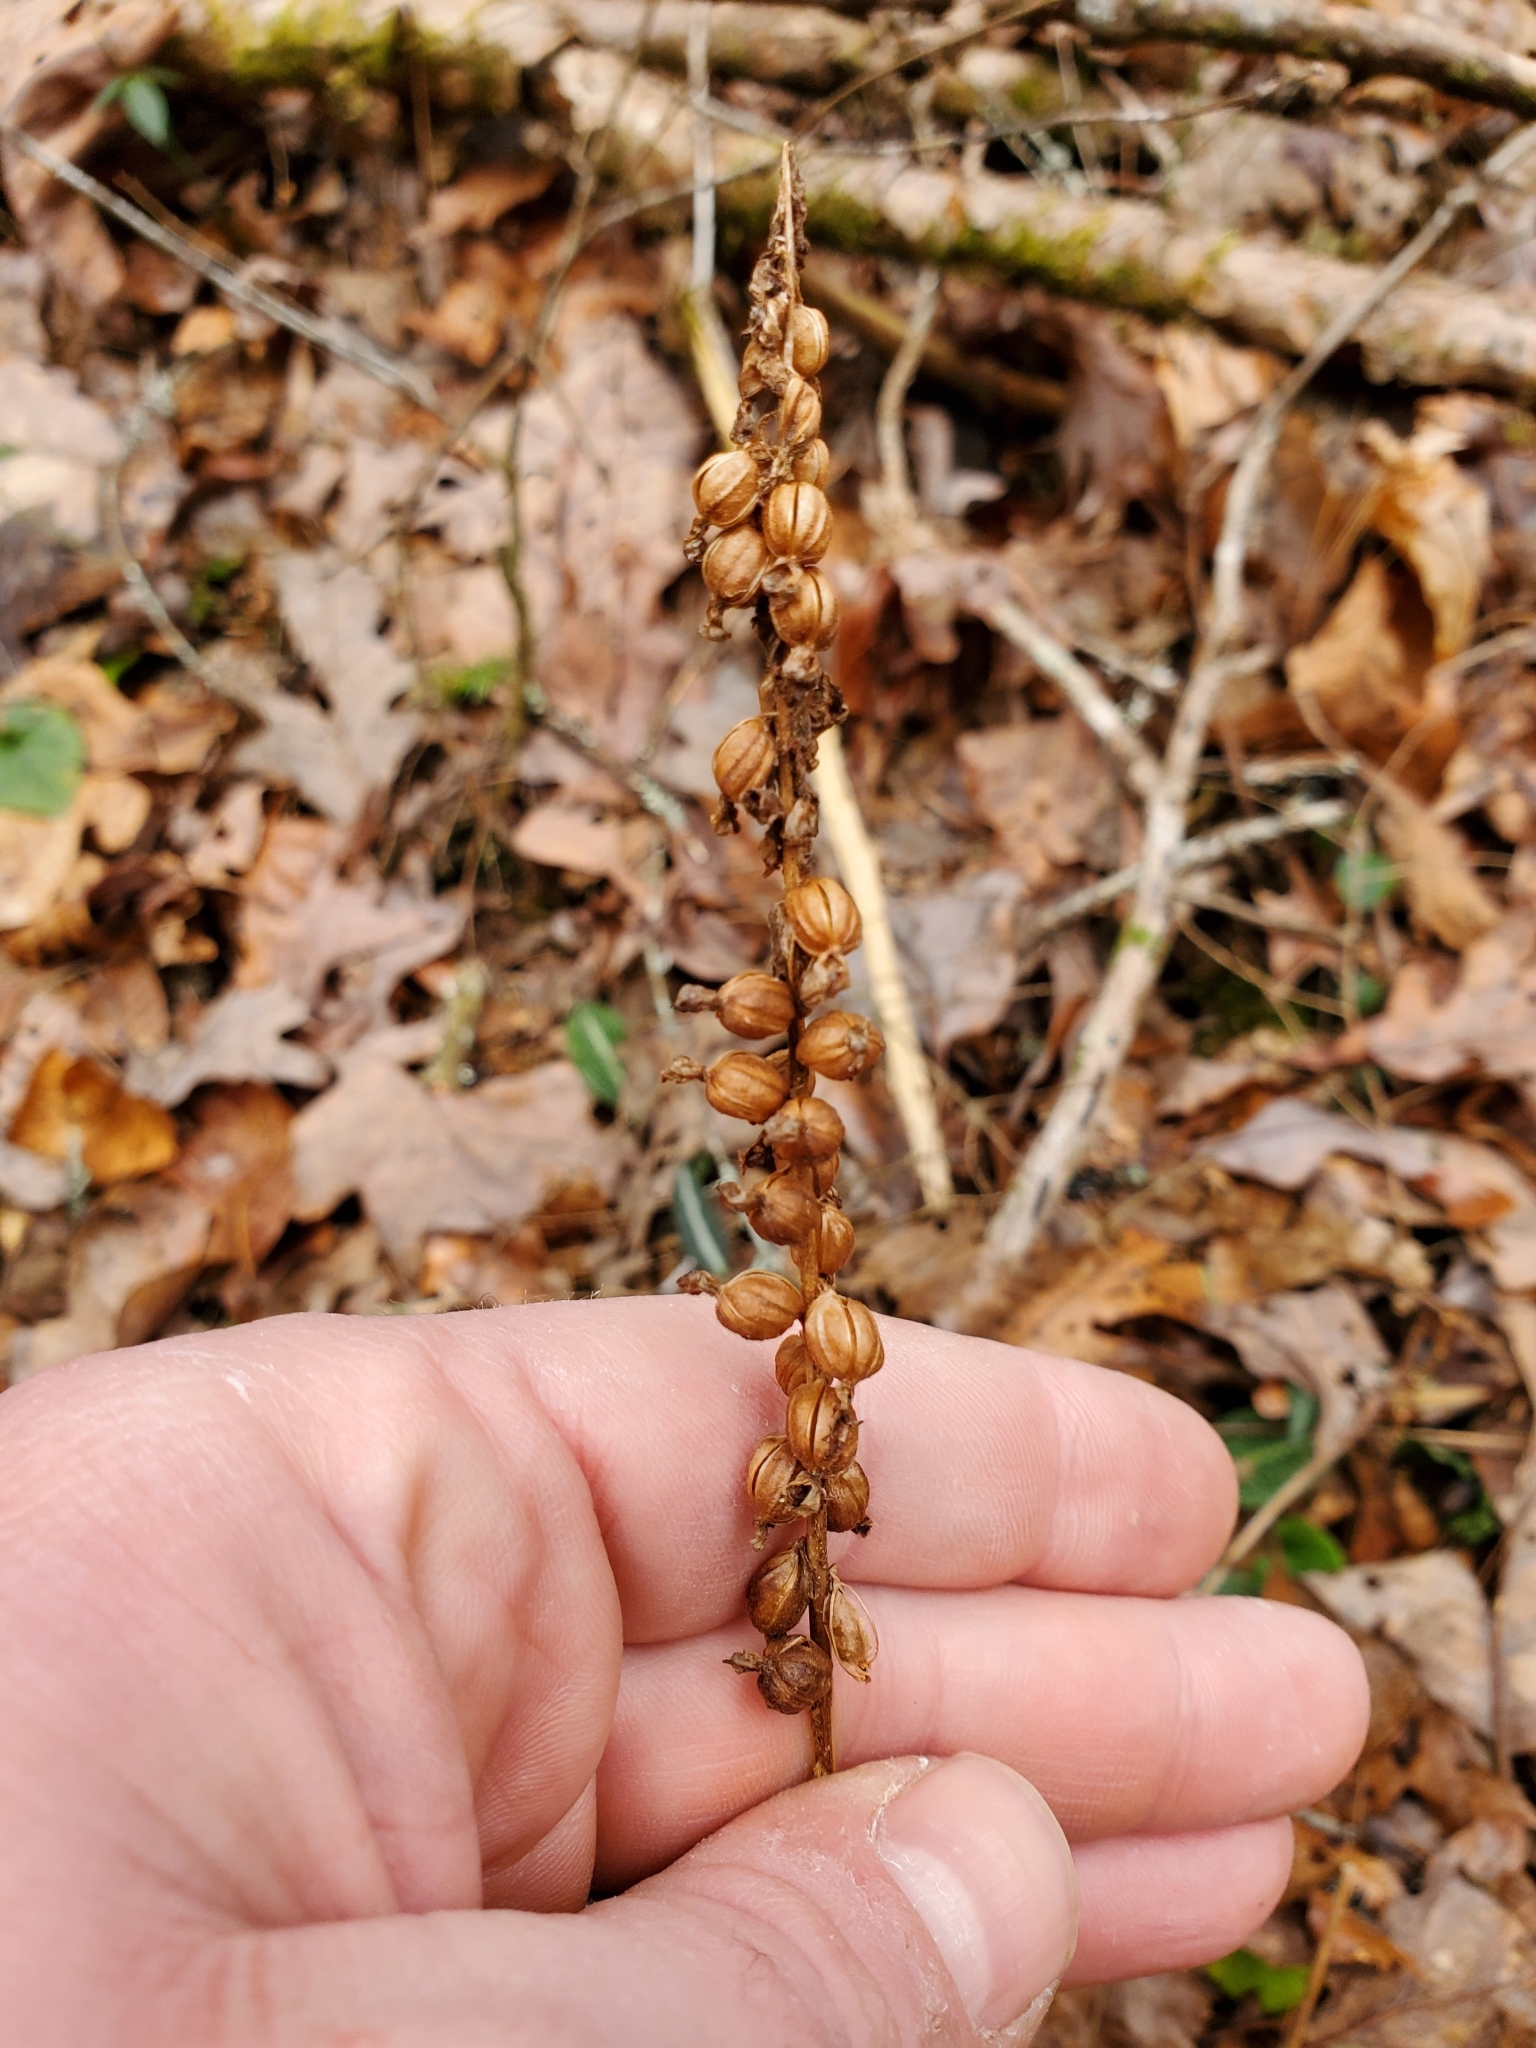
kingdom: Plantae
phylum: Tracheophyta
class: Liliopsida
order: Asparagales
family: Orchidaceae
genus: Goodyera
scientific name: Goodyera pubescens
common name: Downy rattlesnake-plantain
